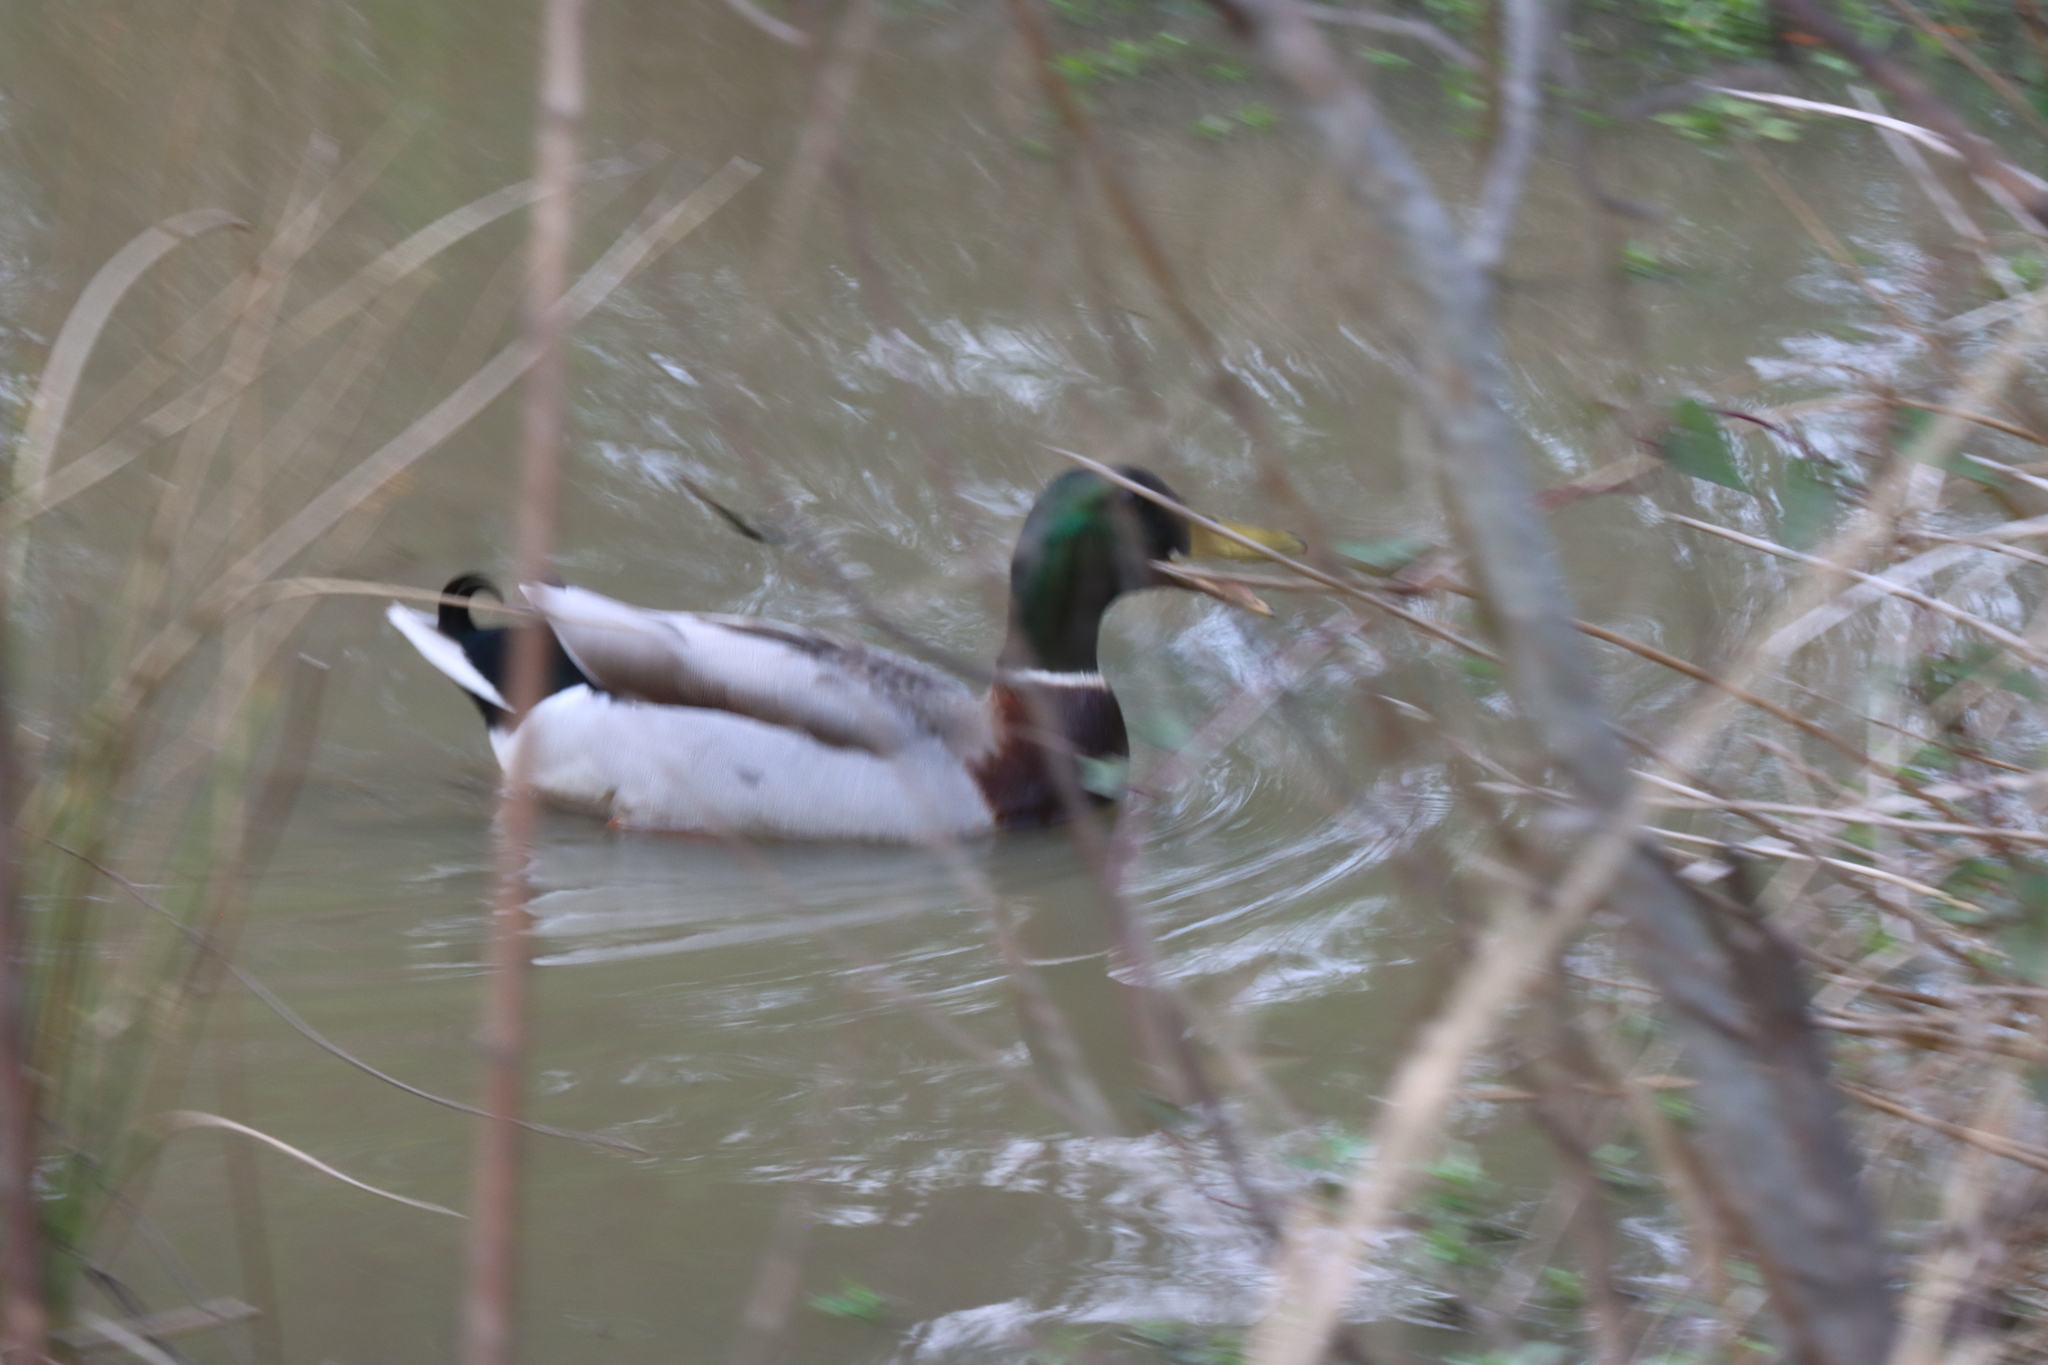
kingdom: Animalia
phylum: Chordata
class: Aves
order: Anseriformes
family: Anatidae
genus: Anas
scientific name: Anas platyrhynchos
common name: Mallard
